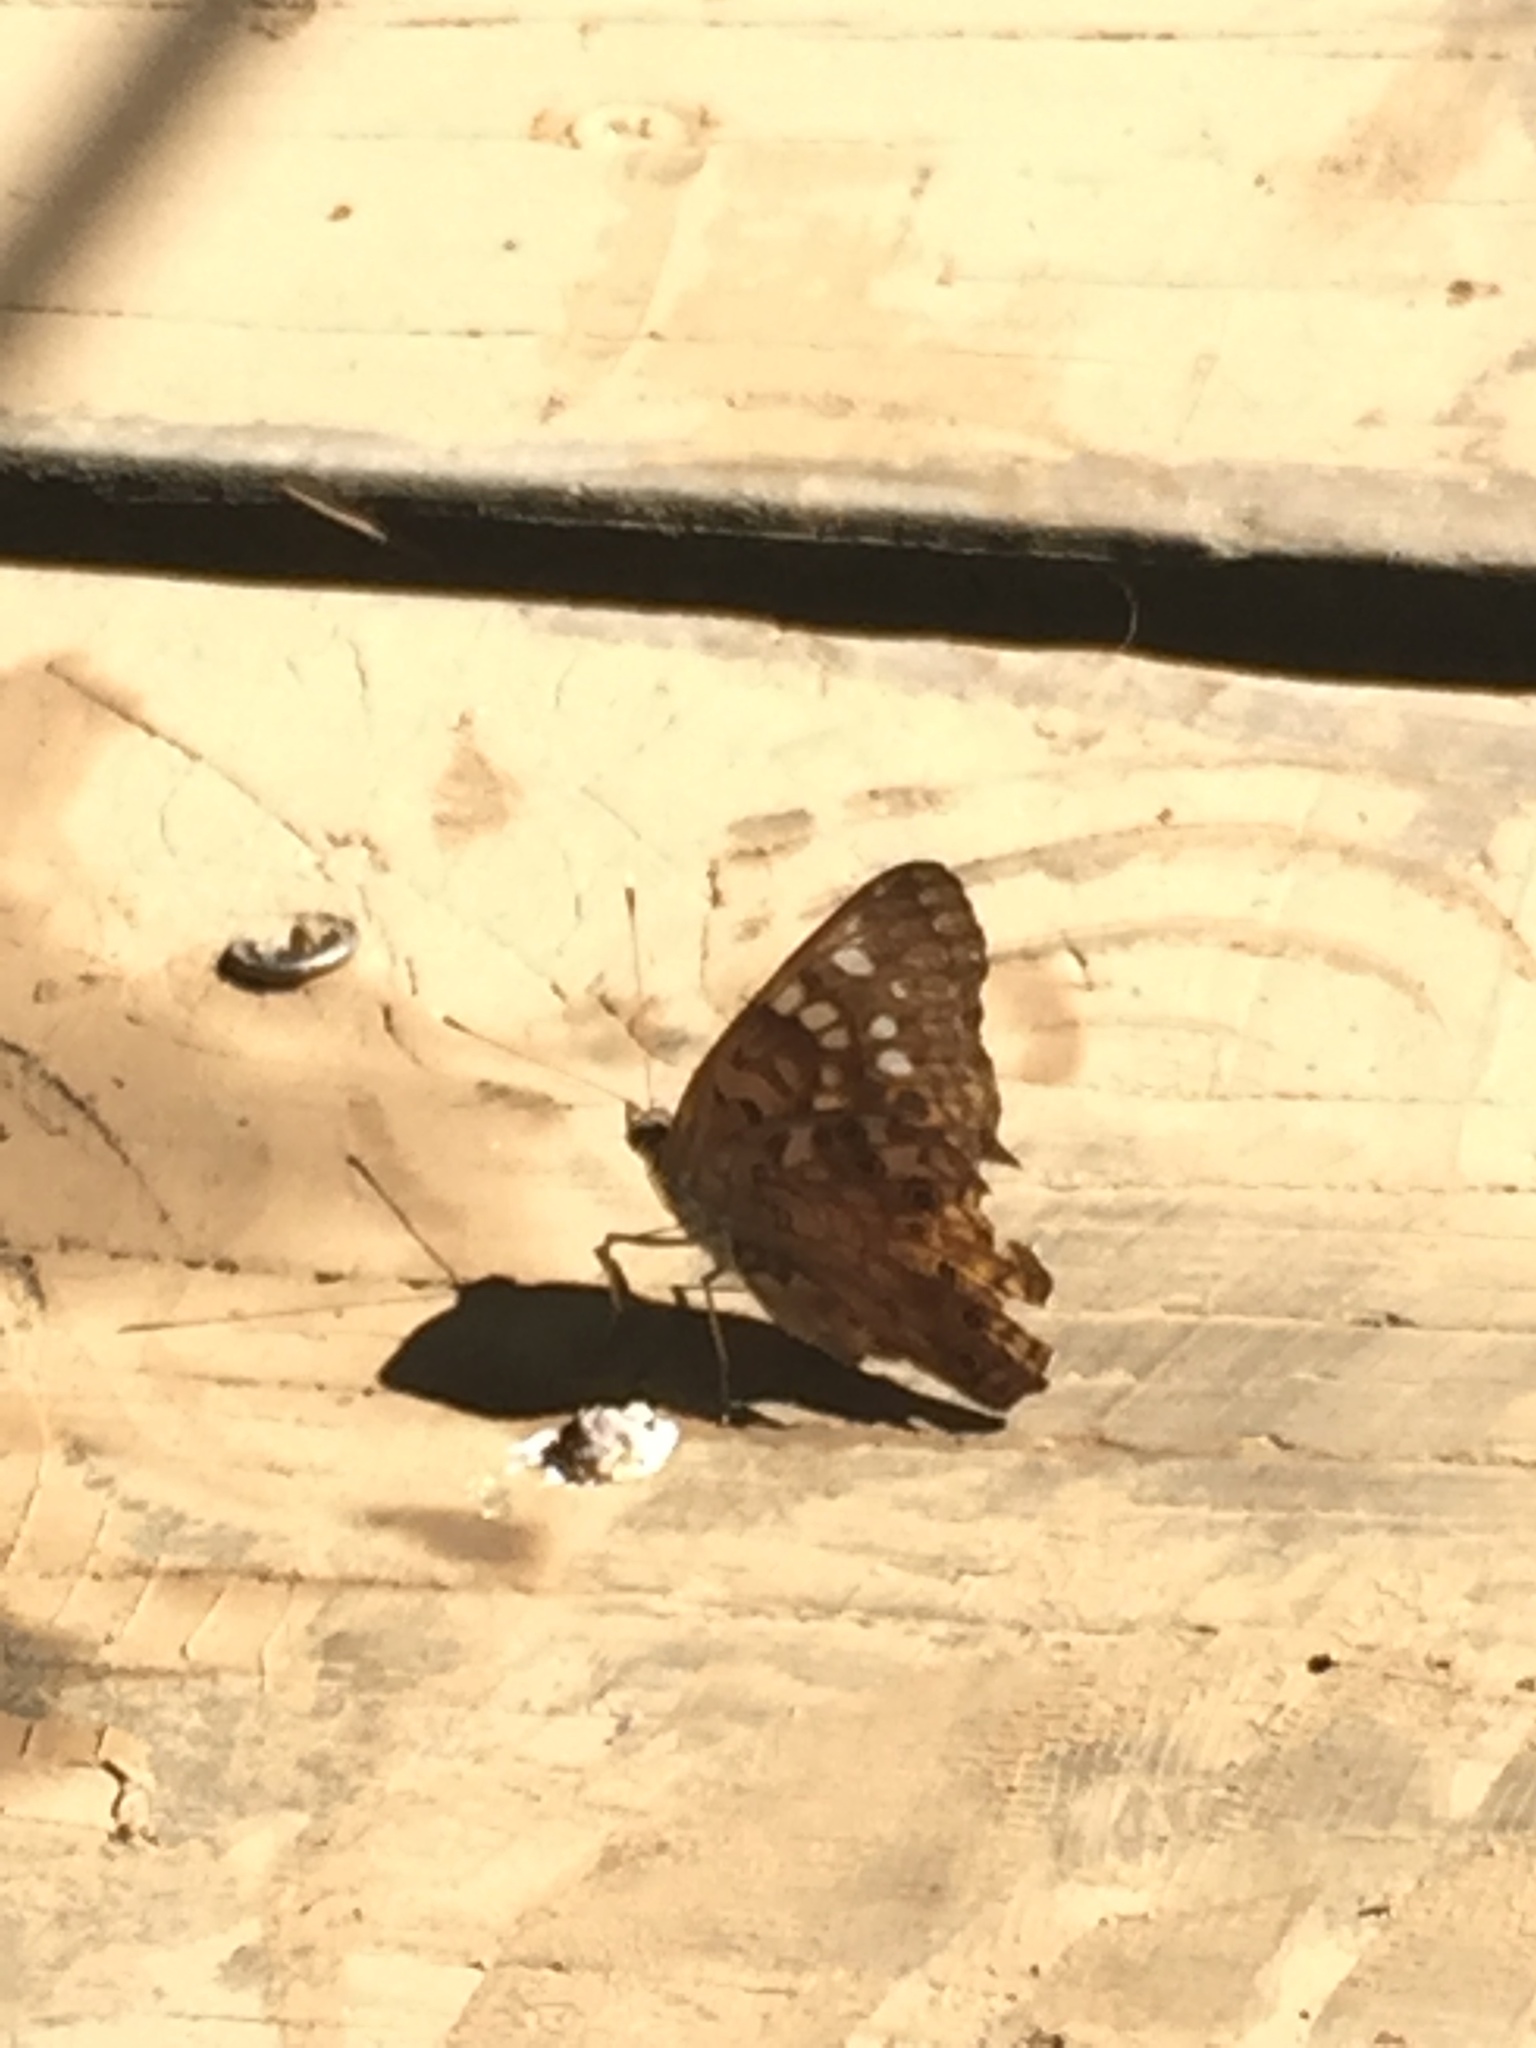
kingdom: Animalia
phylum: Arthropoda
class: Insecta
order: Lepidoptera
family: Nymphalidae
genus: Asterocampa
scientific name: Asterocampa celtis
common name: Hackberry emperor
